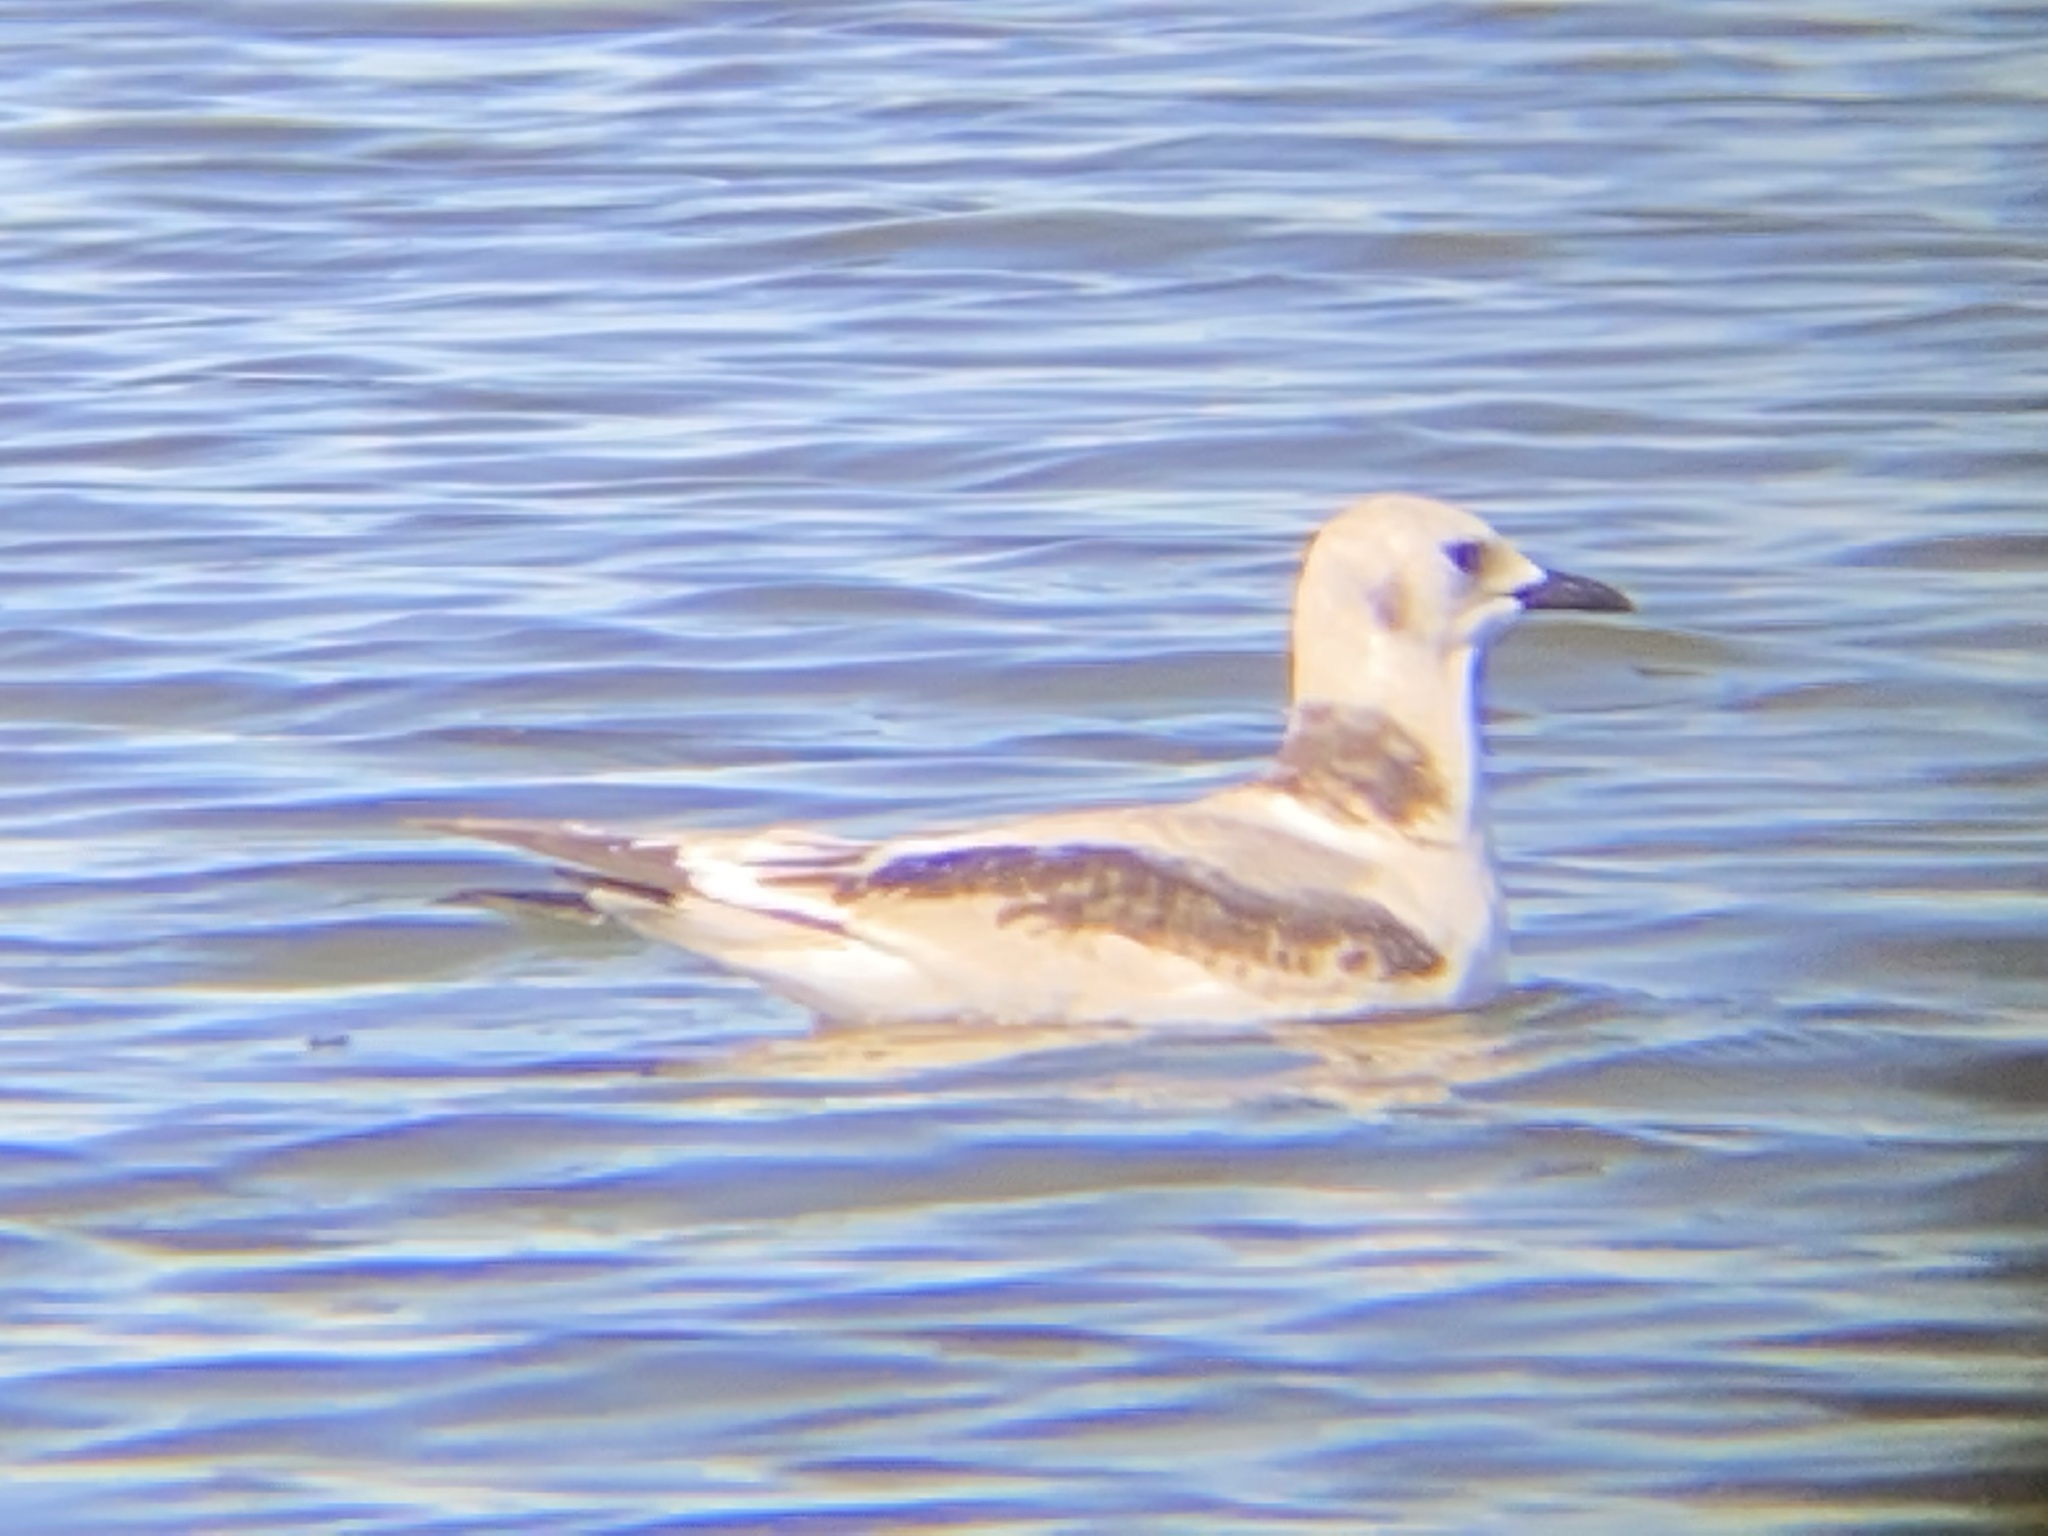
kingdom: Animalia
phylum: Chordata
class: Aves
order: Charadriiformes
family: Laridae
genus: Rissa
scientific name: Rissa tridactyla
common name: Black-legged kittiwake
